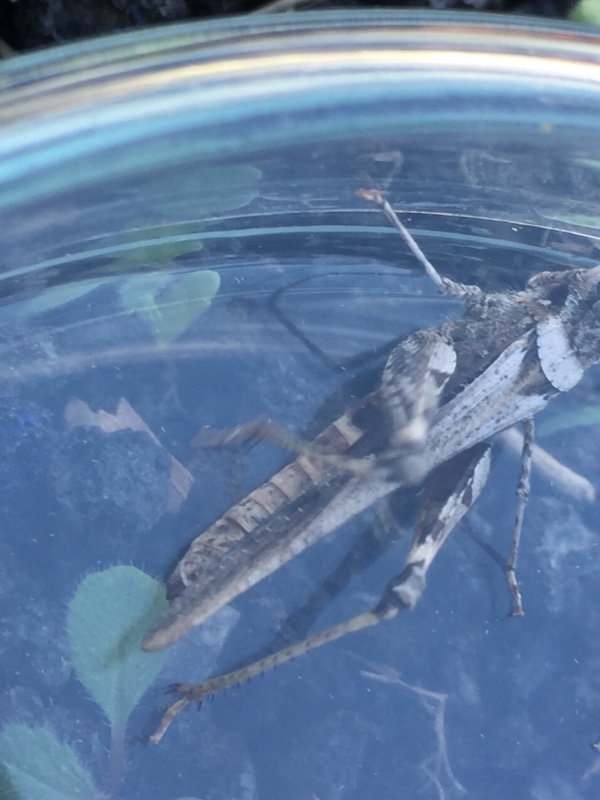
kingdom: Animalia
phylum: Arthropoda
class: Insecta
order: Orthoptera
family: Acrididae
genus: Acrotylus
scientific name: Acrotylus insubricus
